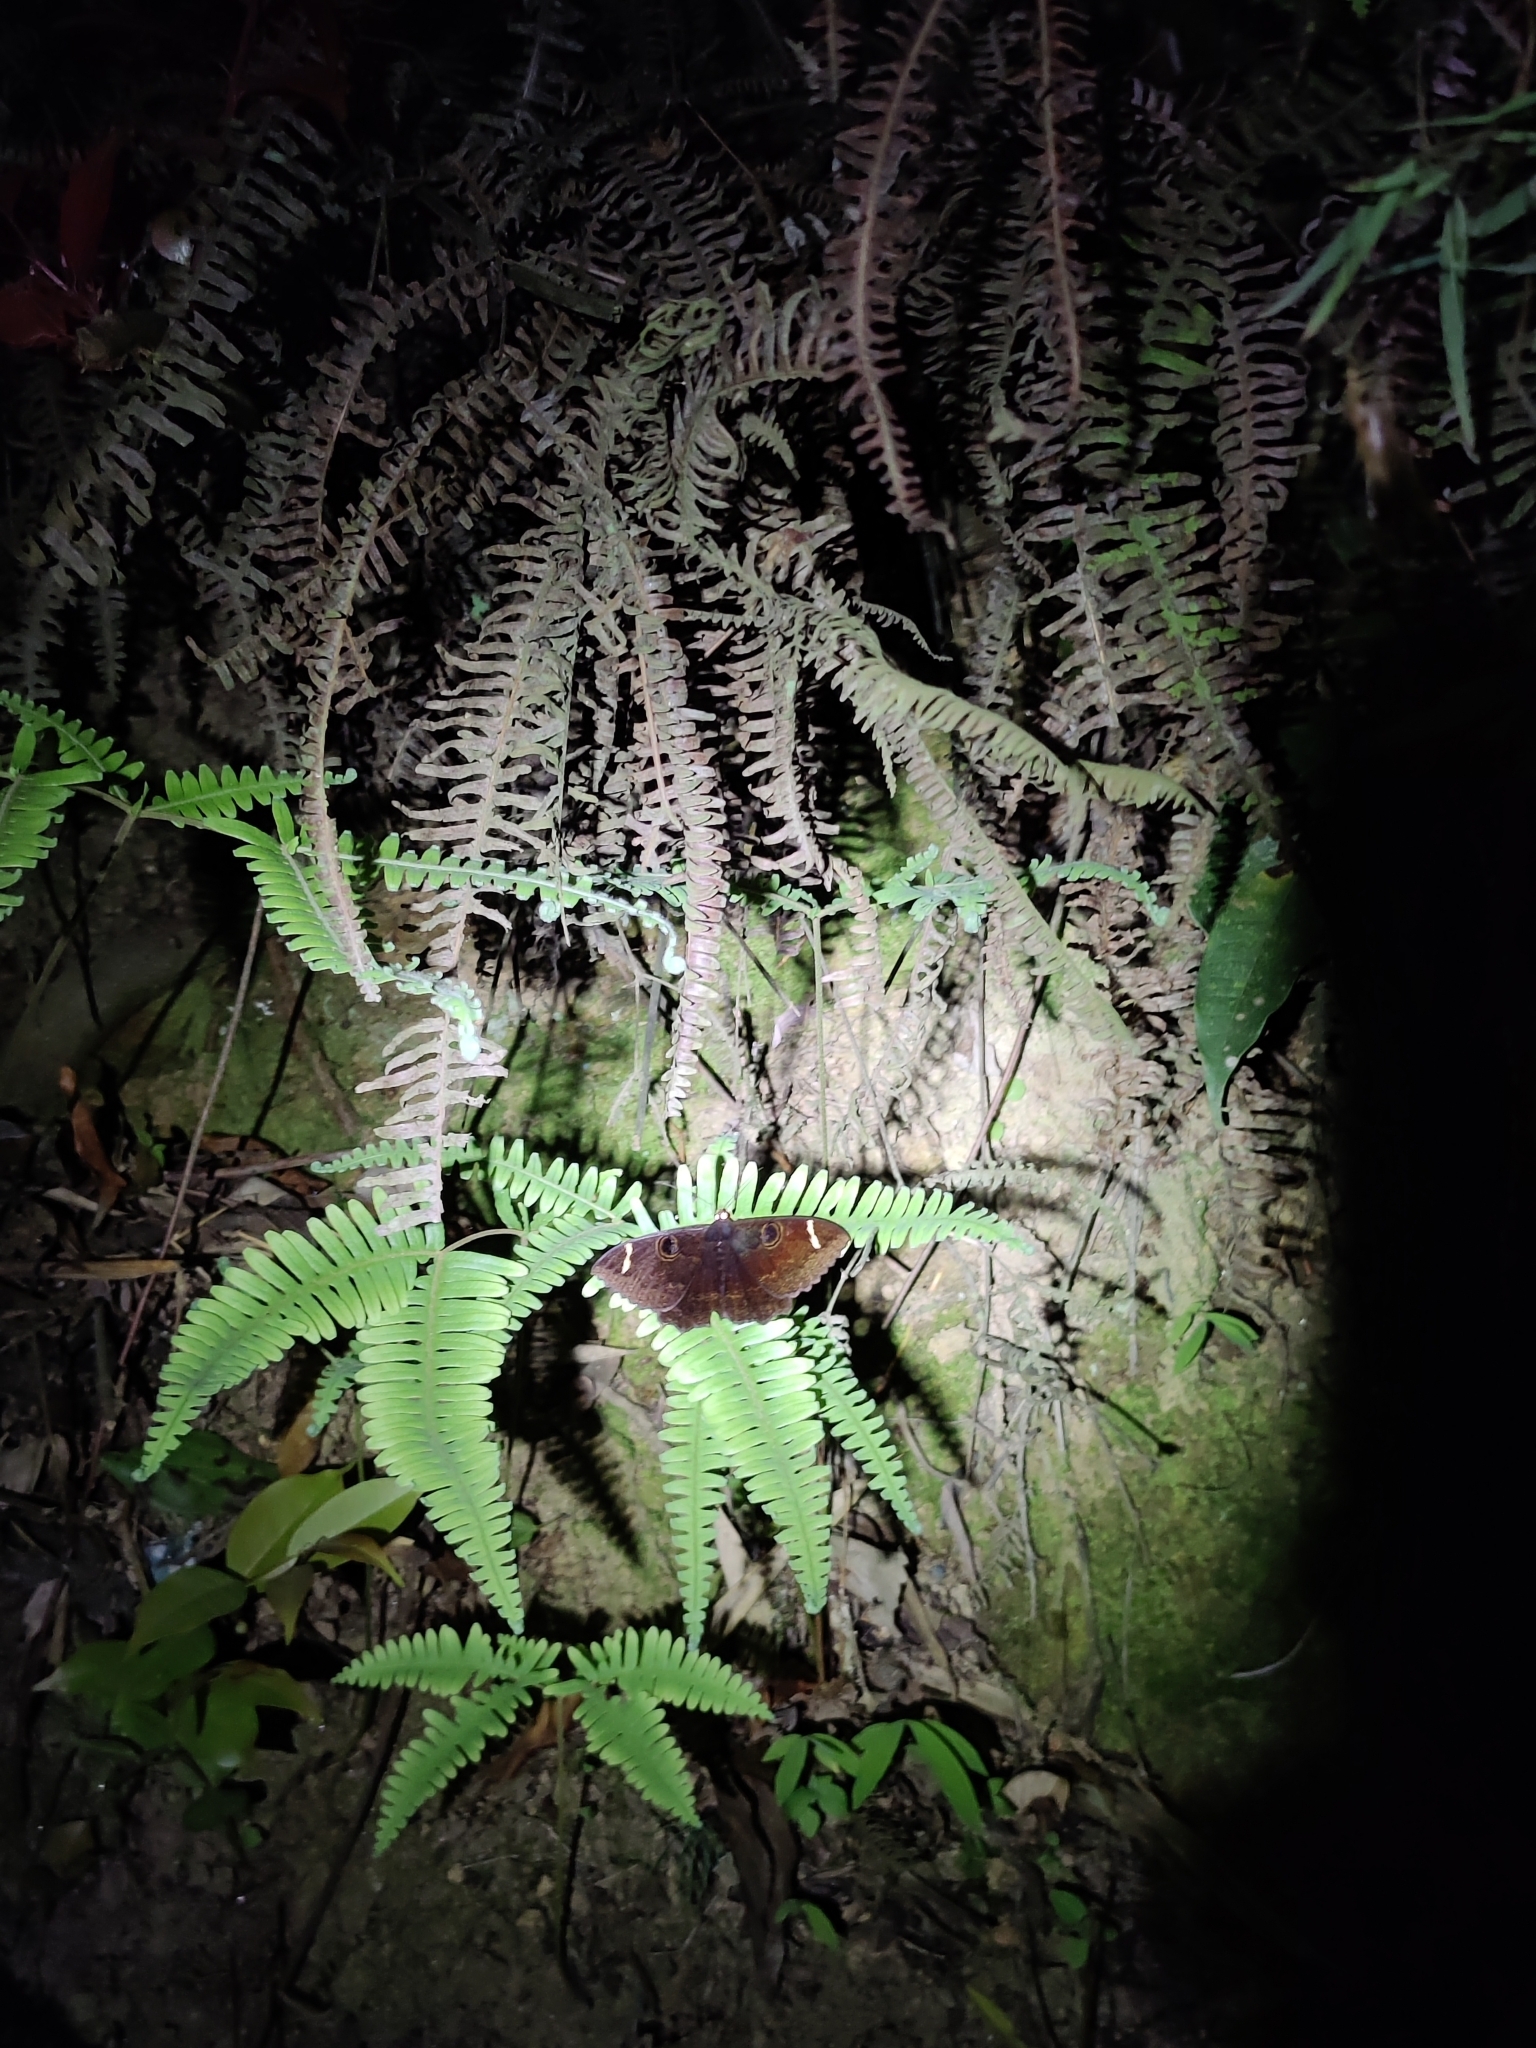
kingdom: Animalia
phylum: Arthropoda
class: Insecta
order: Lepidoptera
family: Erebidae
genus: Erebus
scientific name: Erebus hieroglyphica
